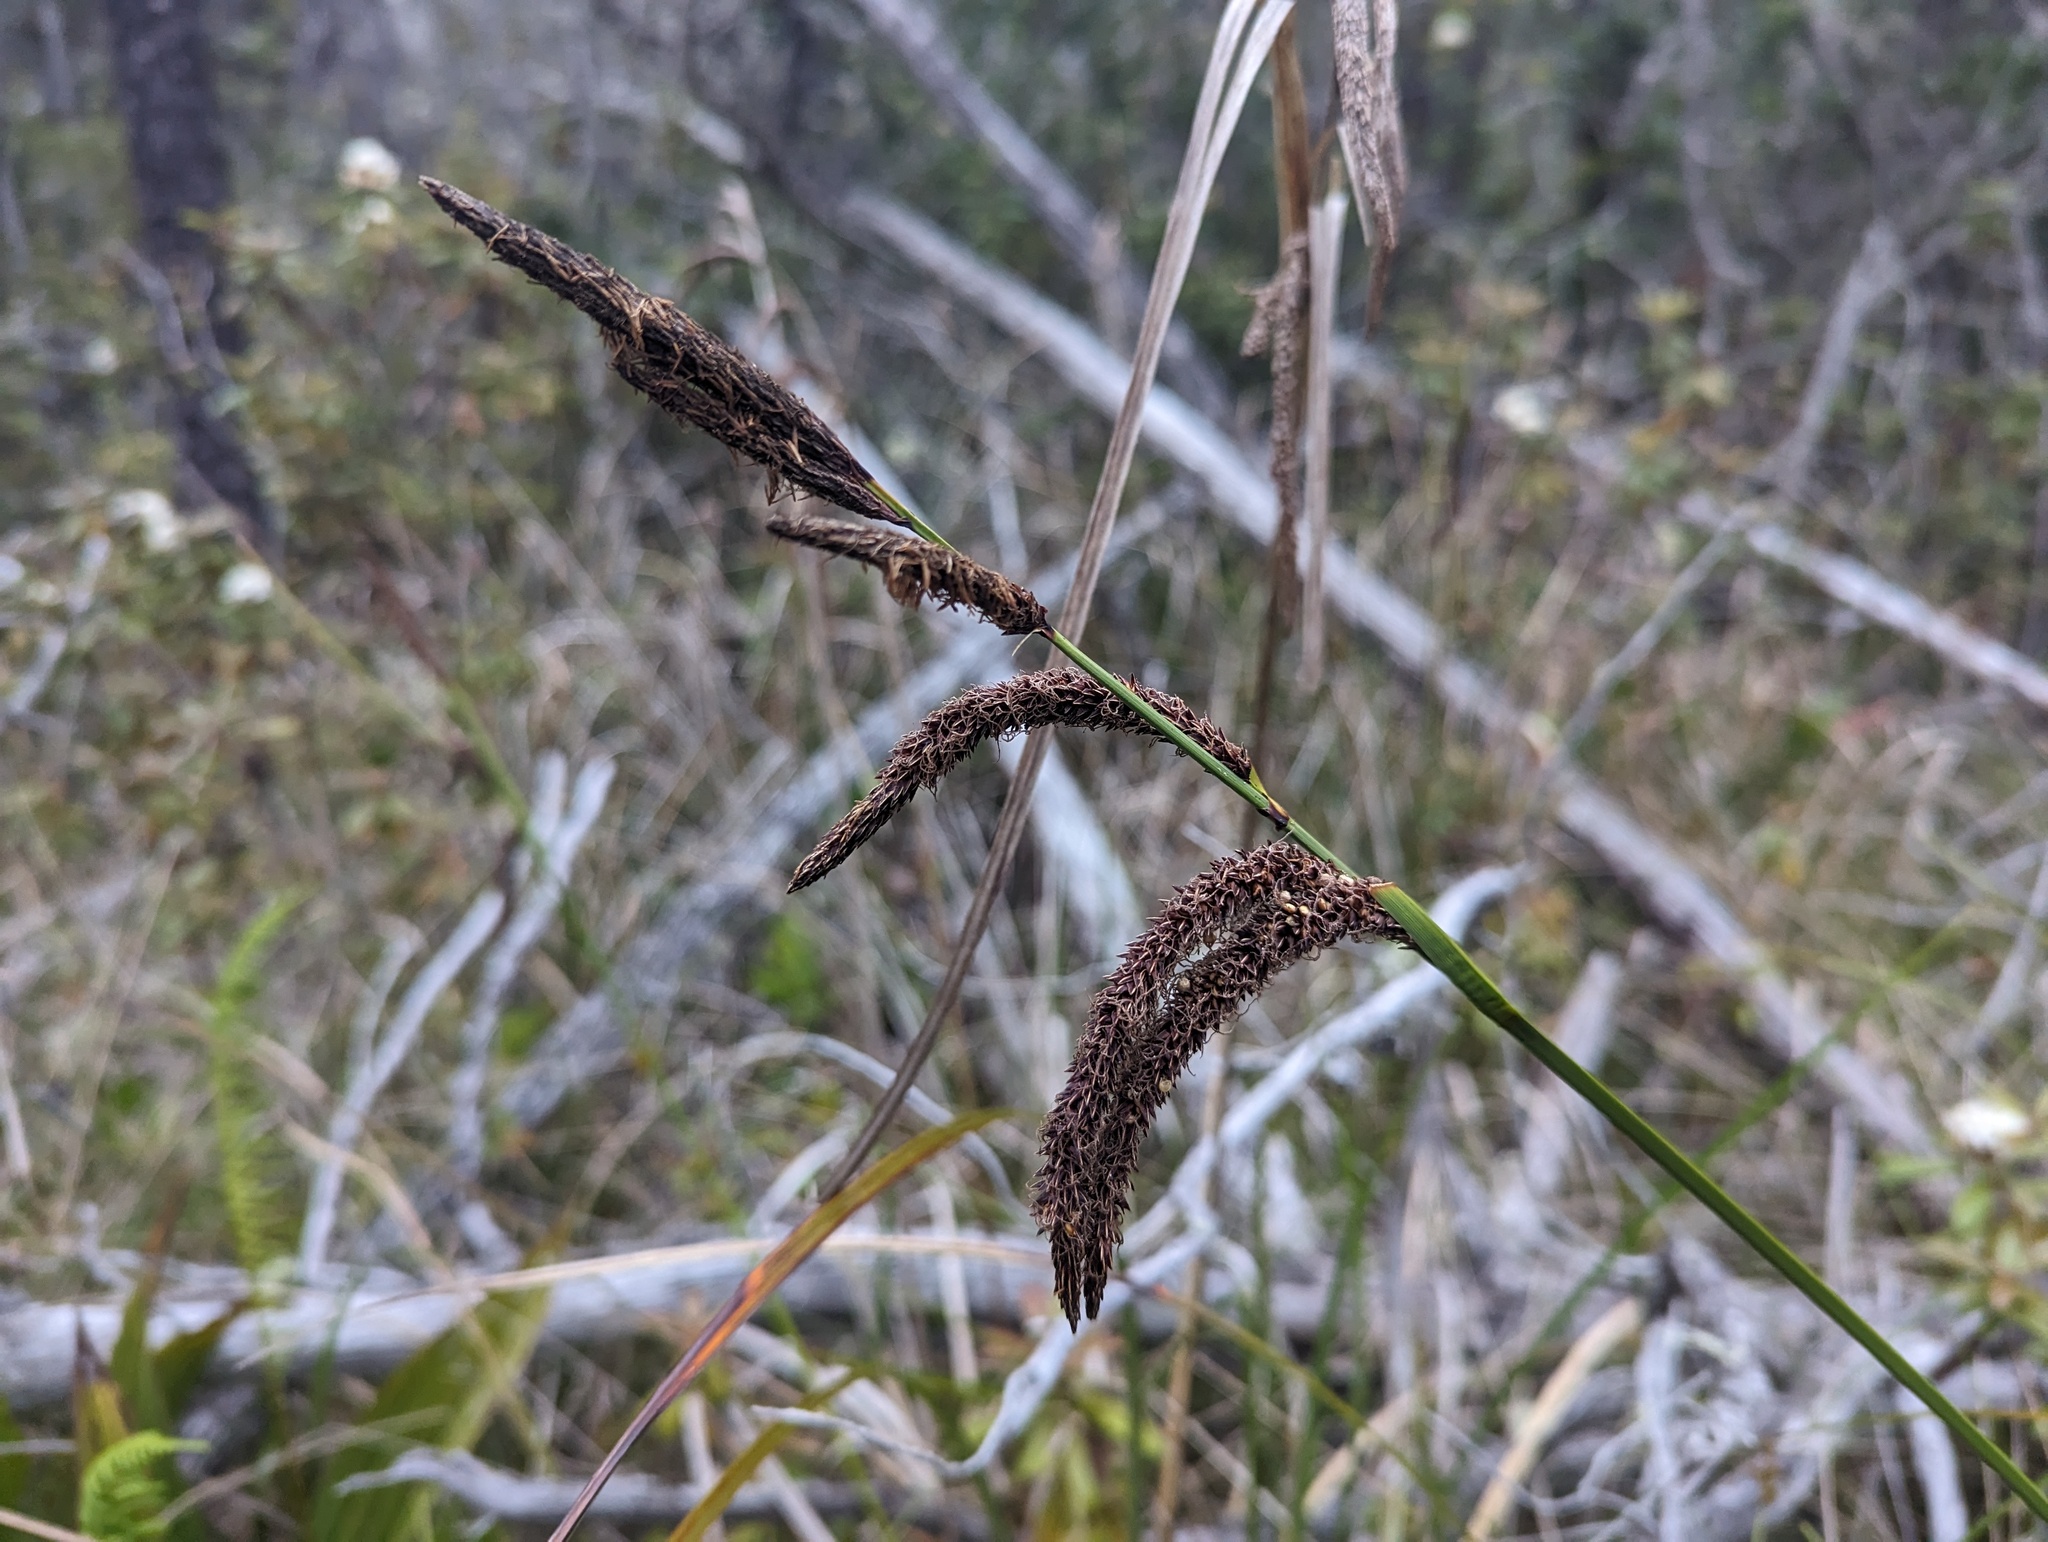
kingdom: Plantae
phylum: Tracheophyta
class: Liliopsida
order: Poales
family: Cyperaceae
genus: Carex
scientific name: Carex obnupta
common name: Slough sedge
